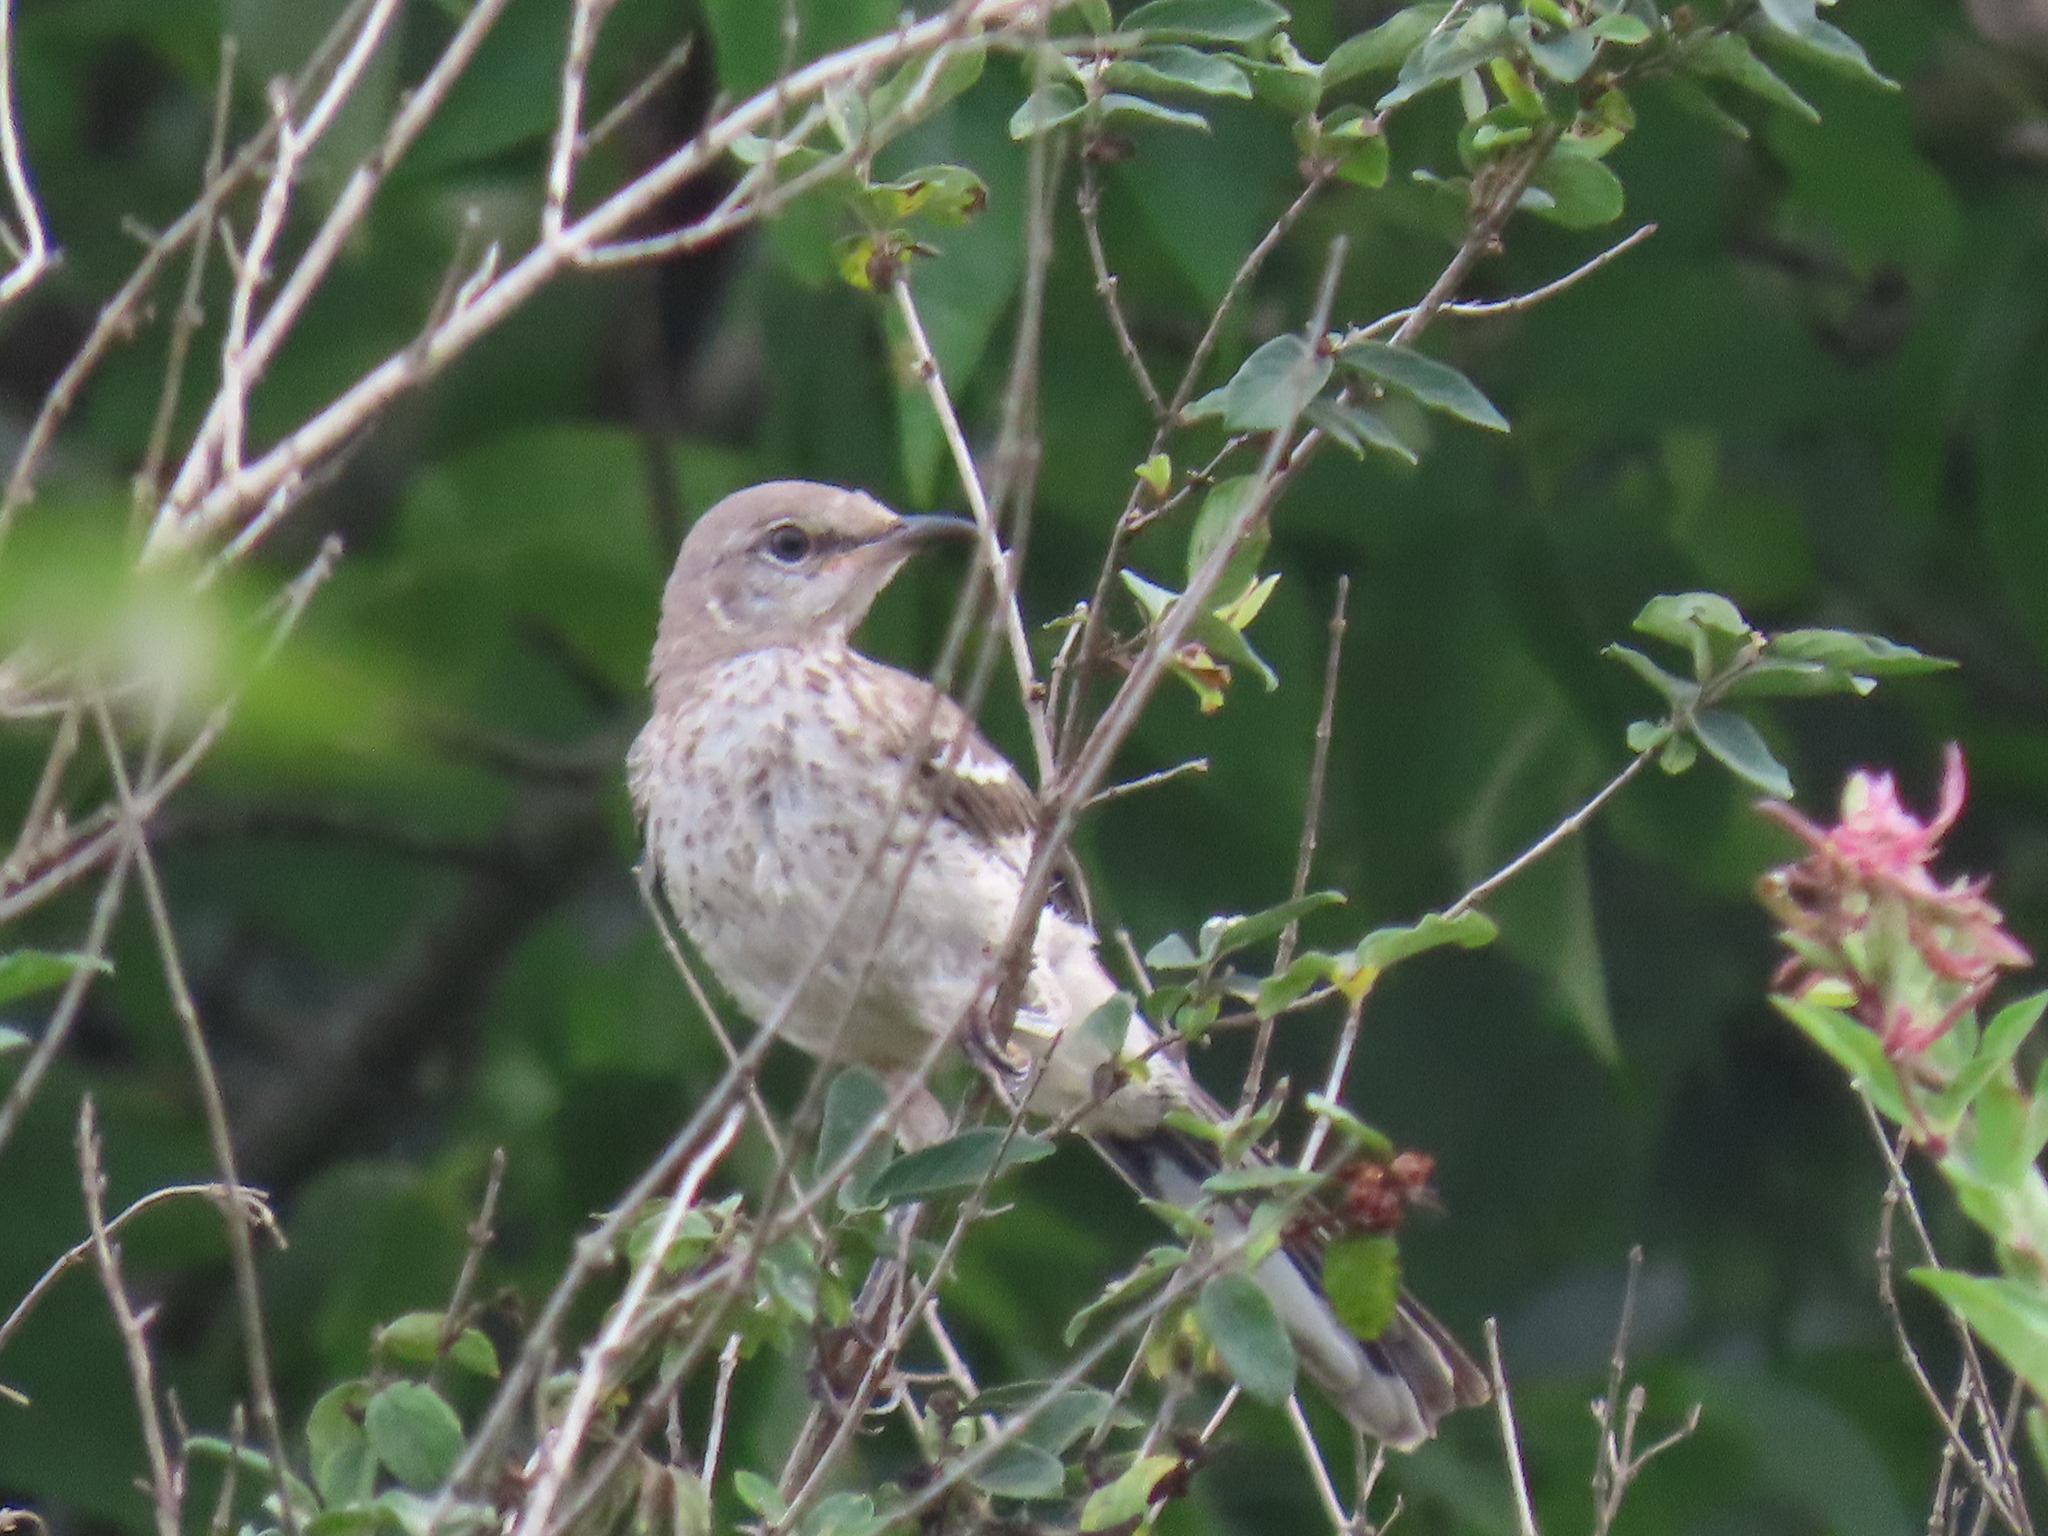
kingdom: Animalia
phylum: Chordata
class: Aves
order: Passeriformes
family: Mimidae
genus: Mimus
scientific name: Mimus polyglottos
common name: Northern mockingbird
